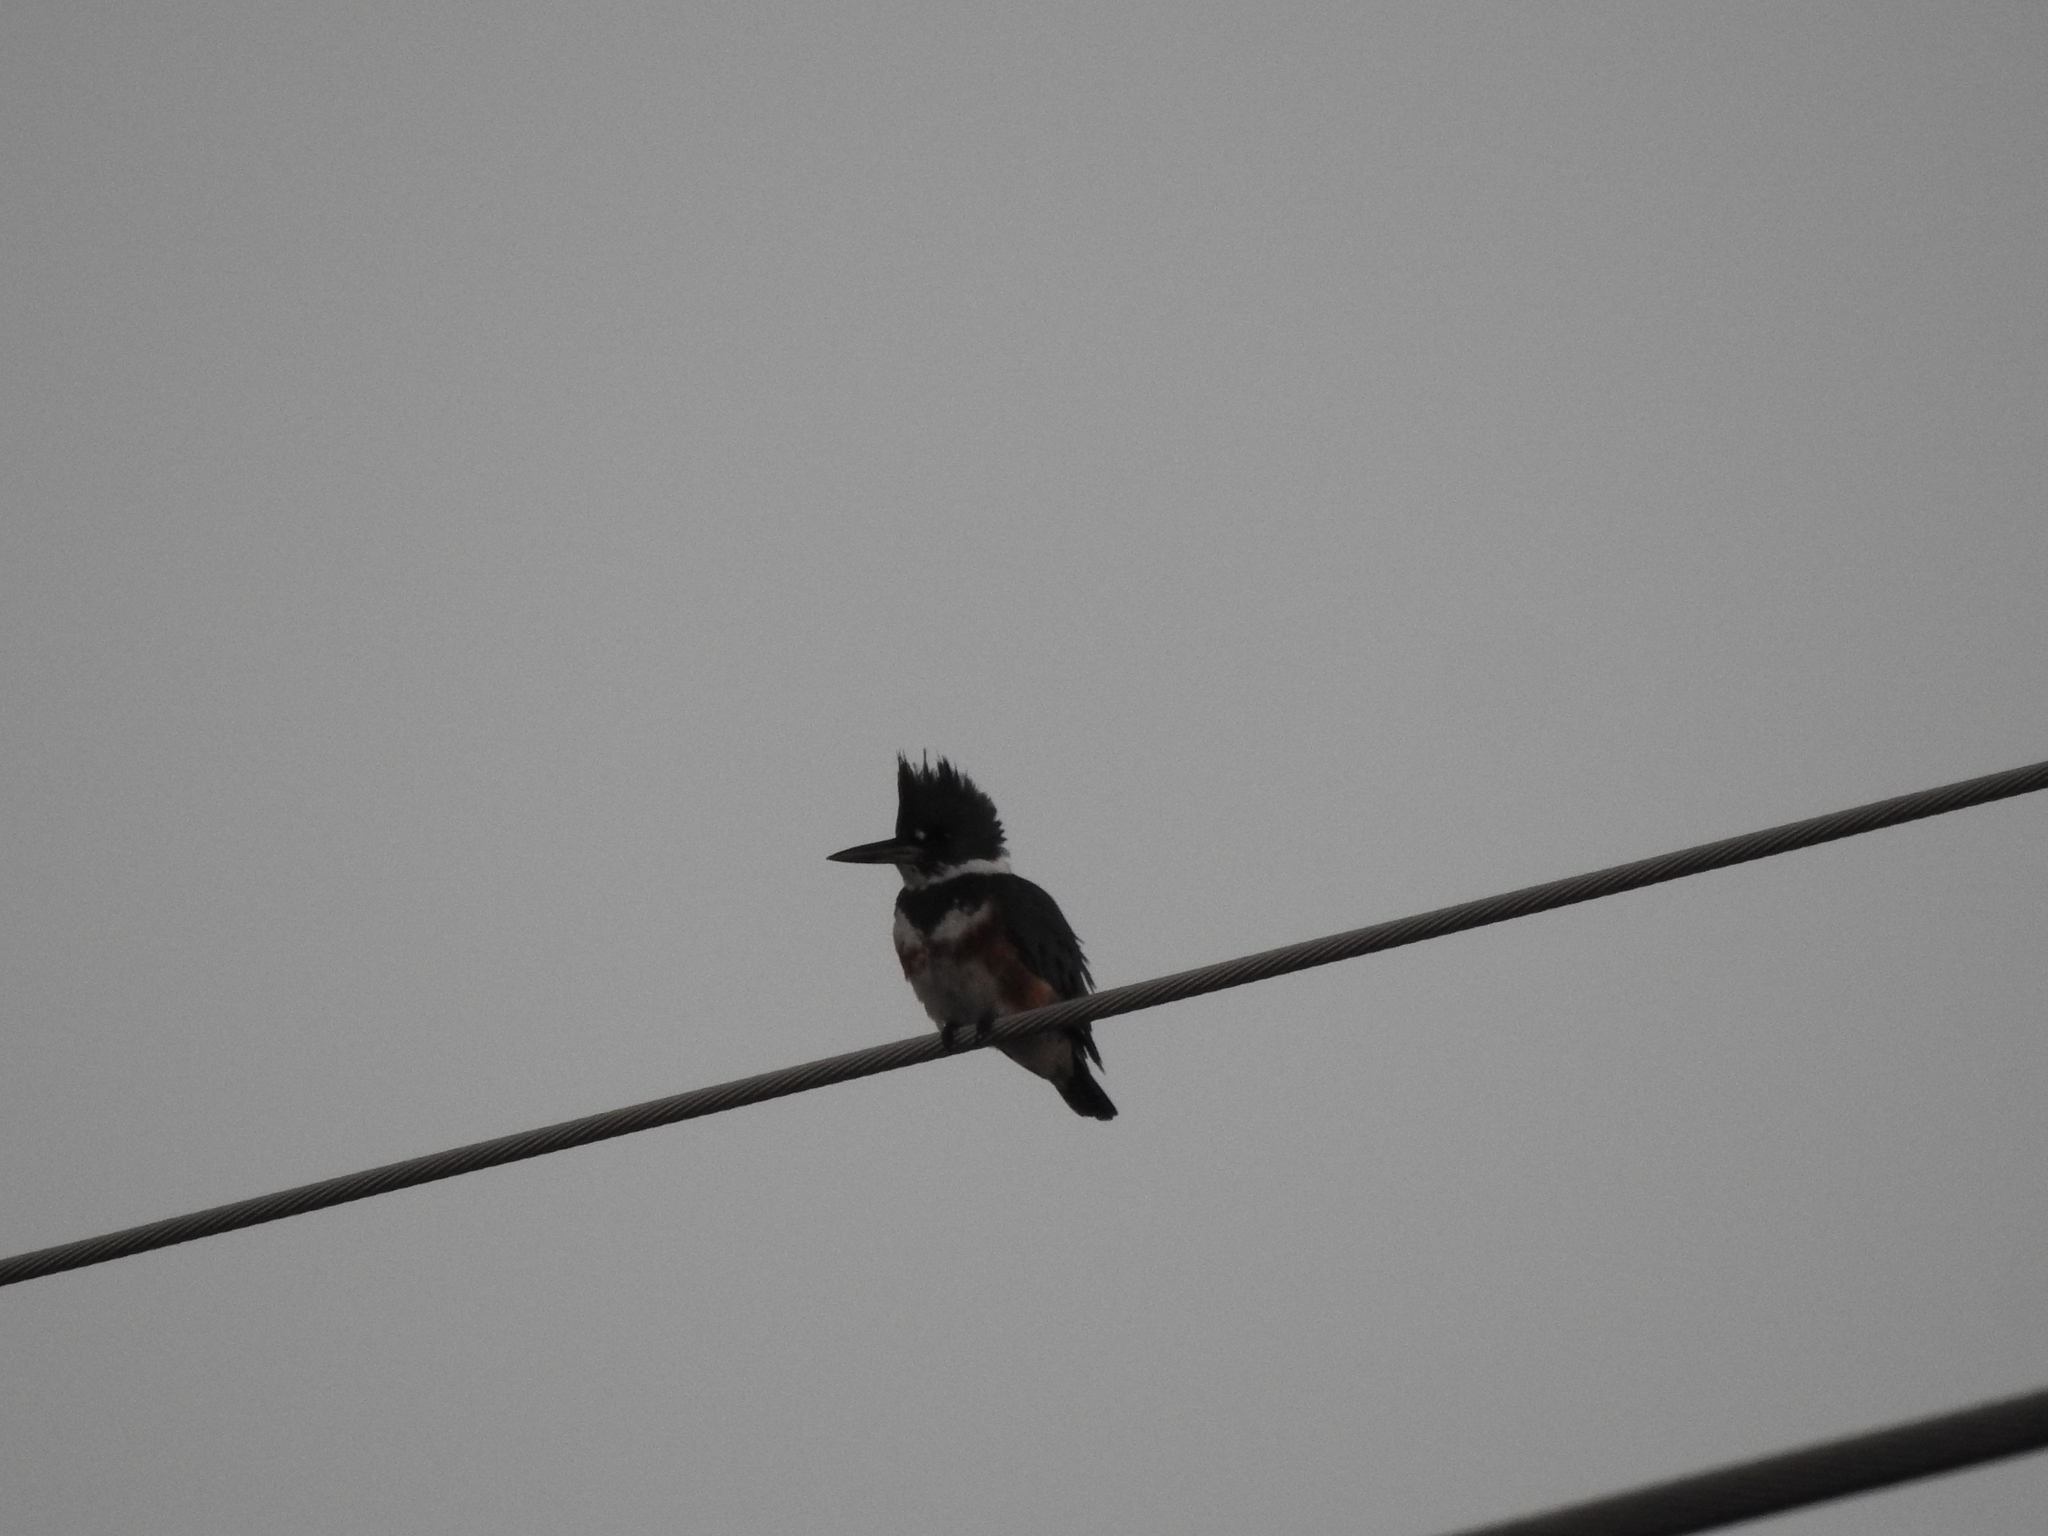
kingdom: Animalia
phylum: Chordata
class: Aves
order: Coraciiformes
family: Alcedinidae
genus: Megaceryle
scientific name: Megaceryle alcyon
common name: Belted kingfisher
